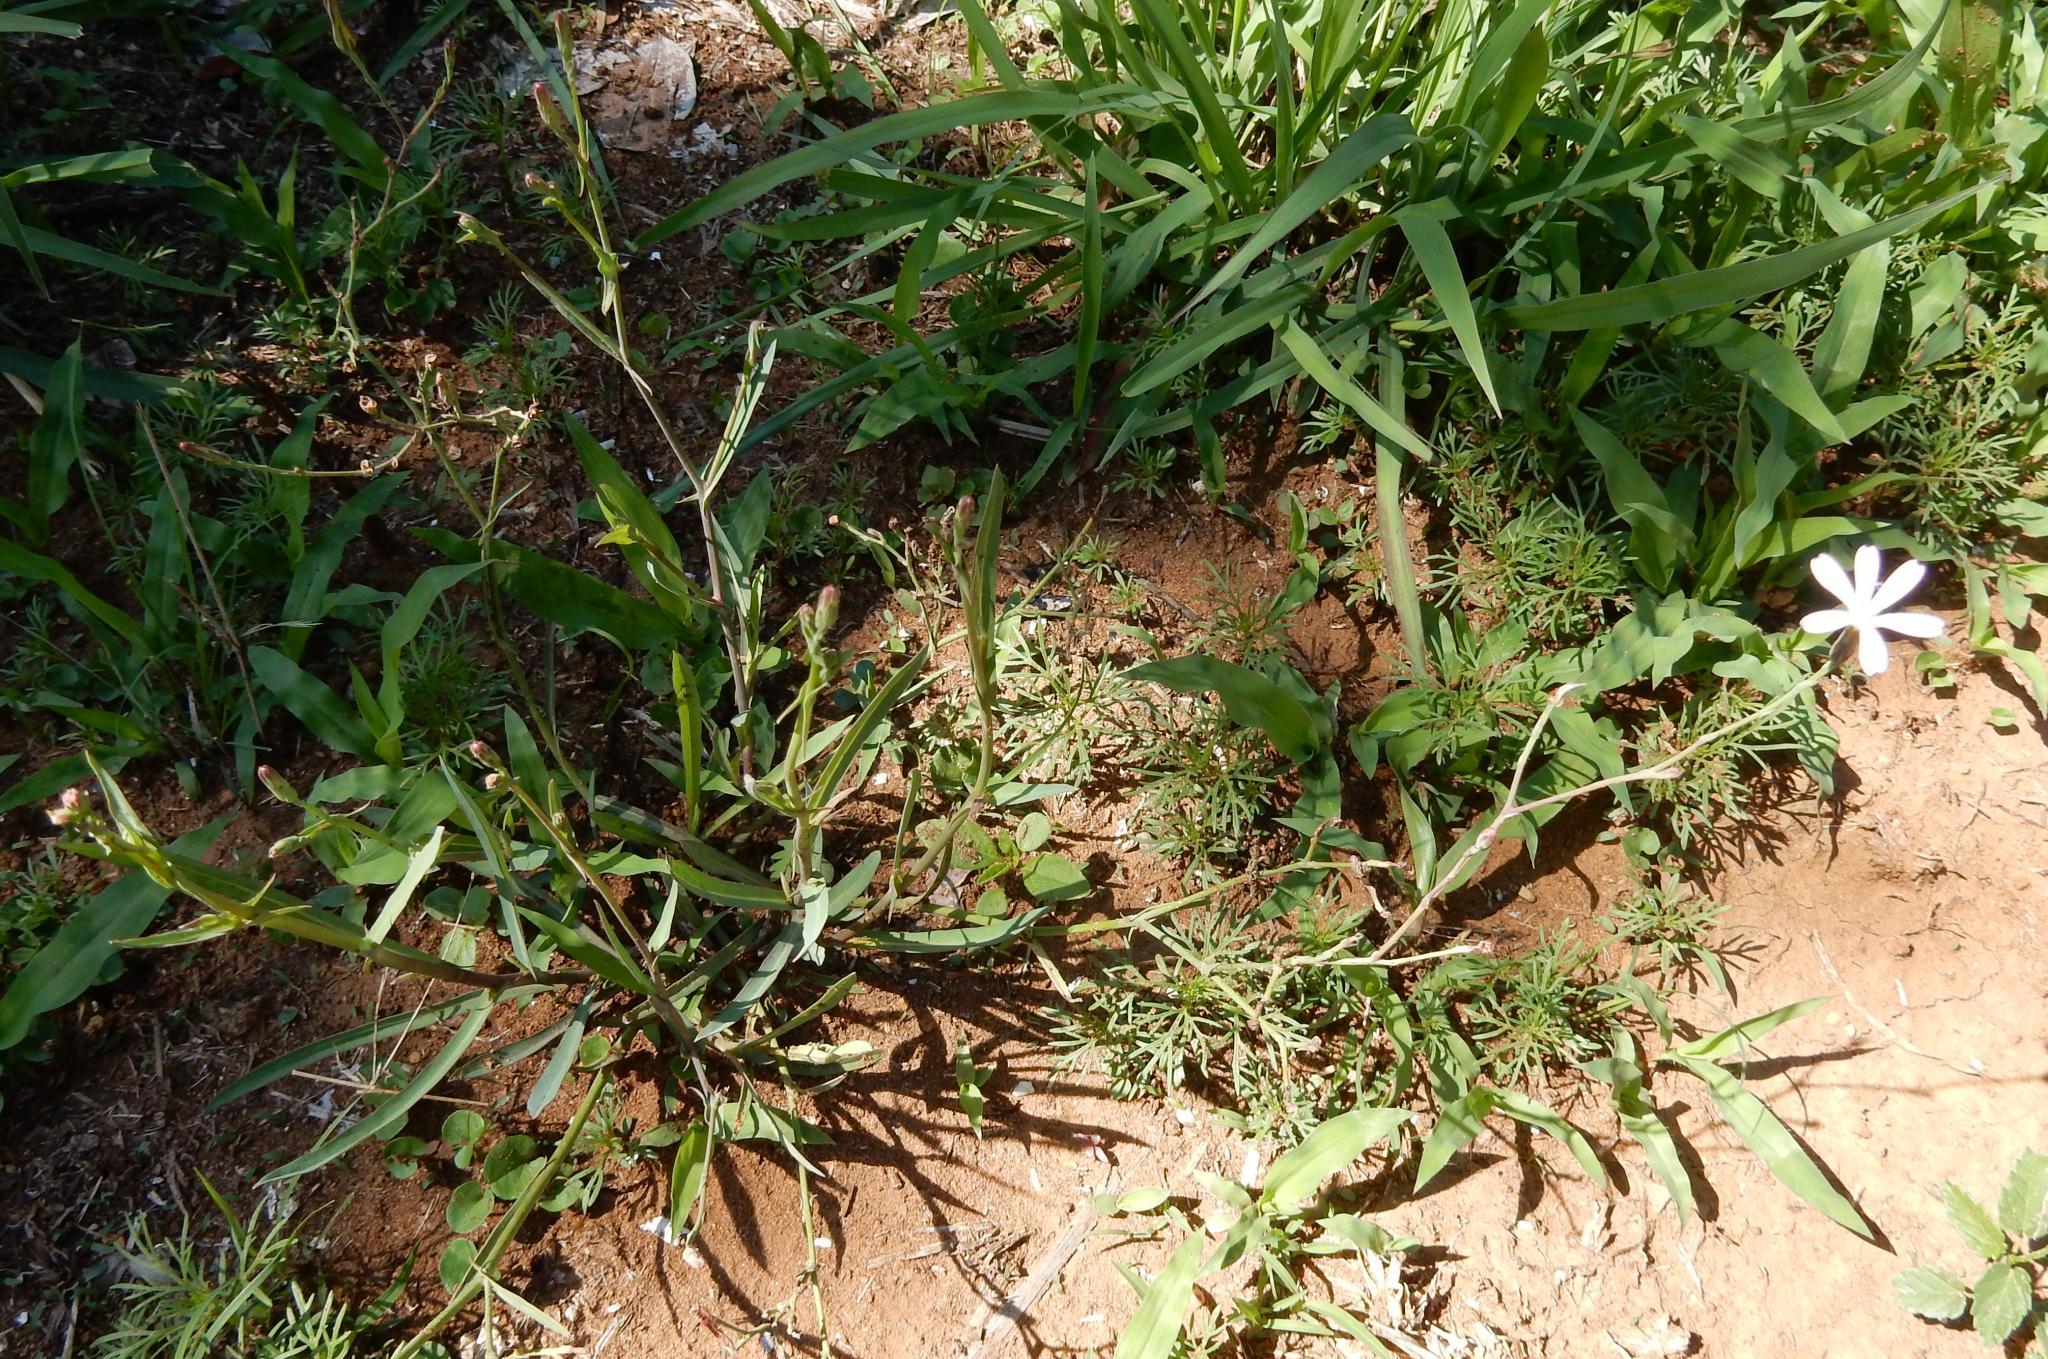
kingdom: Plantae
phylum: Tracheophyta
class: Magnoliopsida
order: Asterales
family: Asteraceae
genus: Lactuca
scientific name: Lactuca inermis
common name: Wild lettuce
